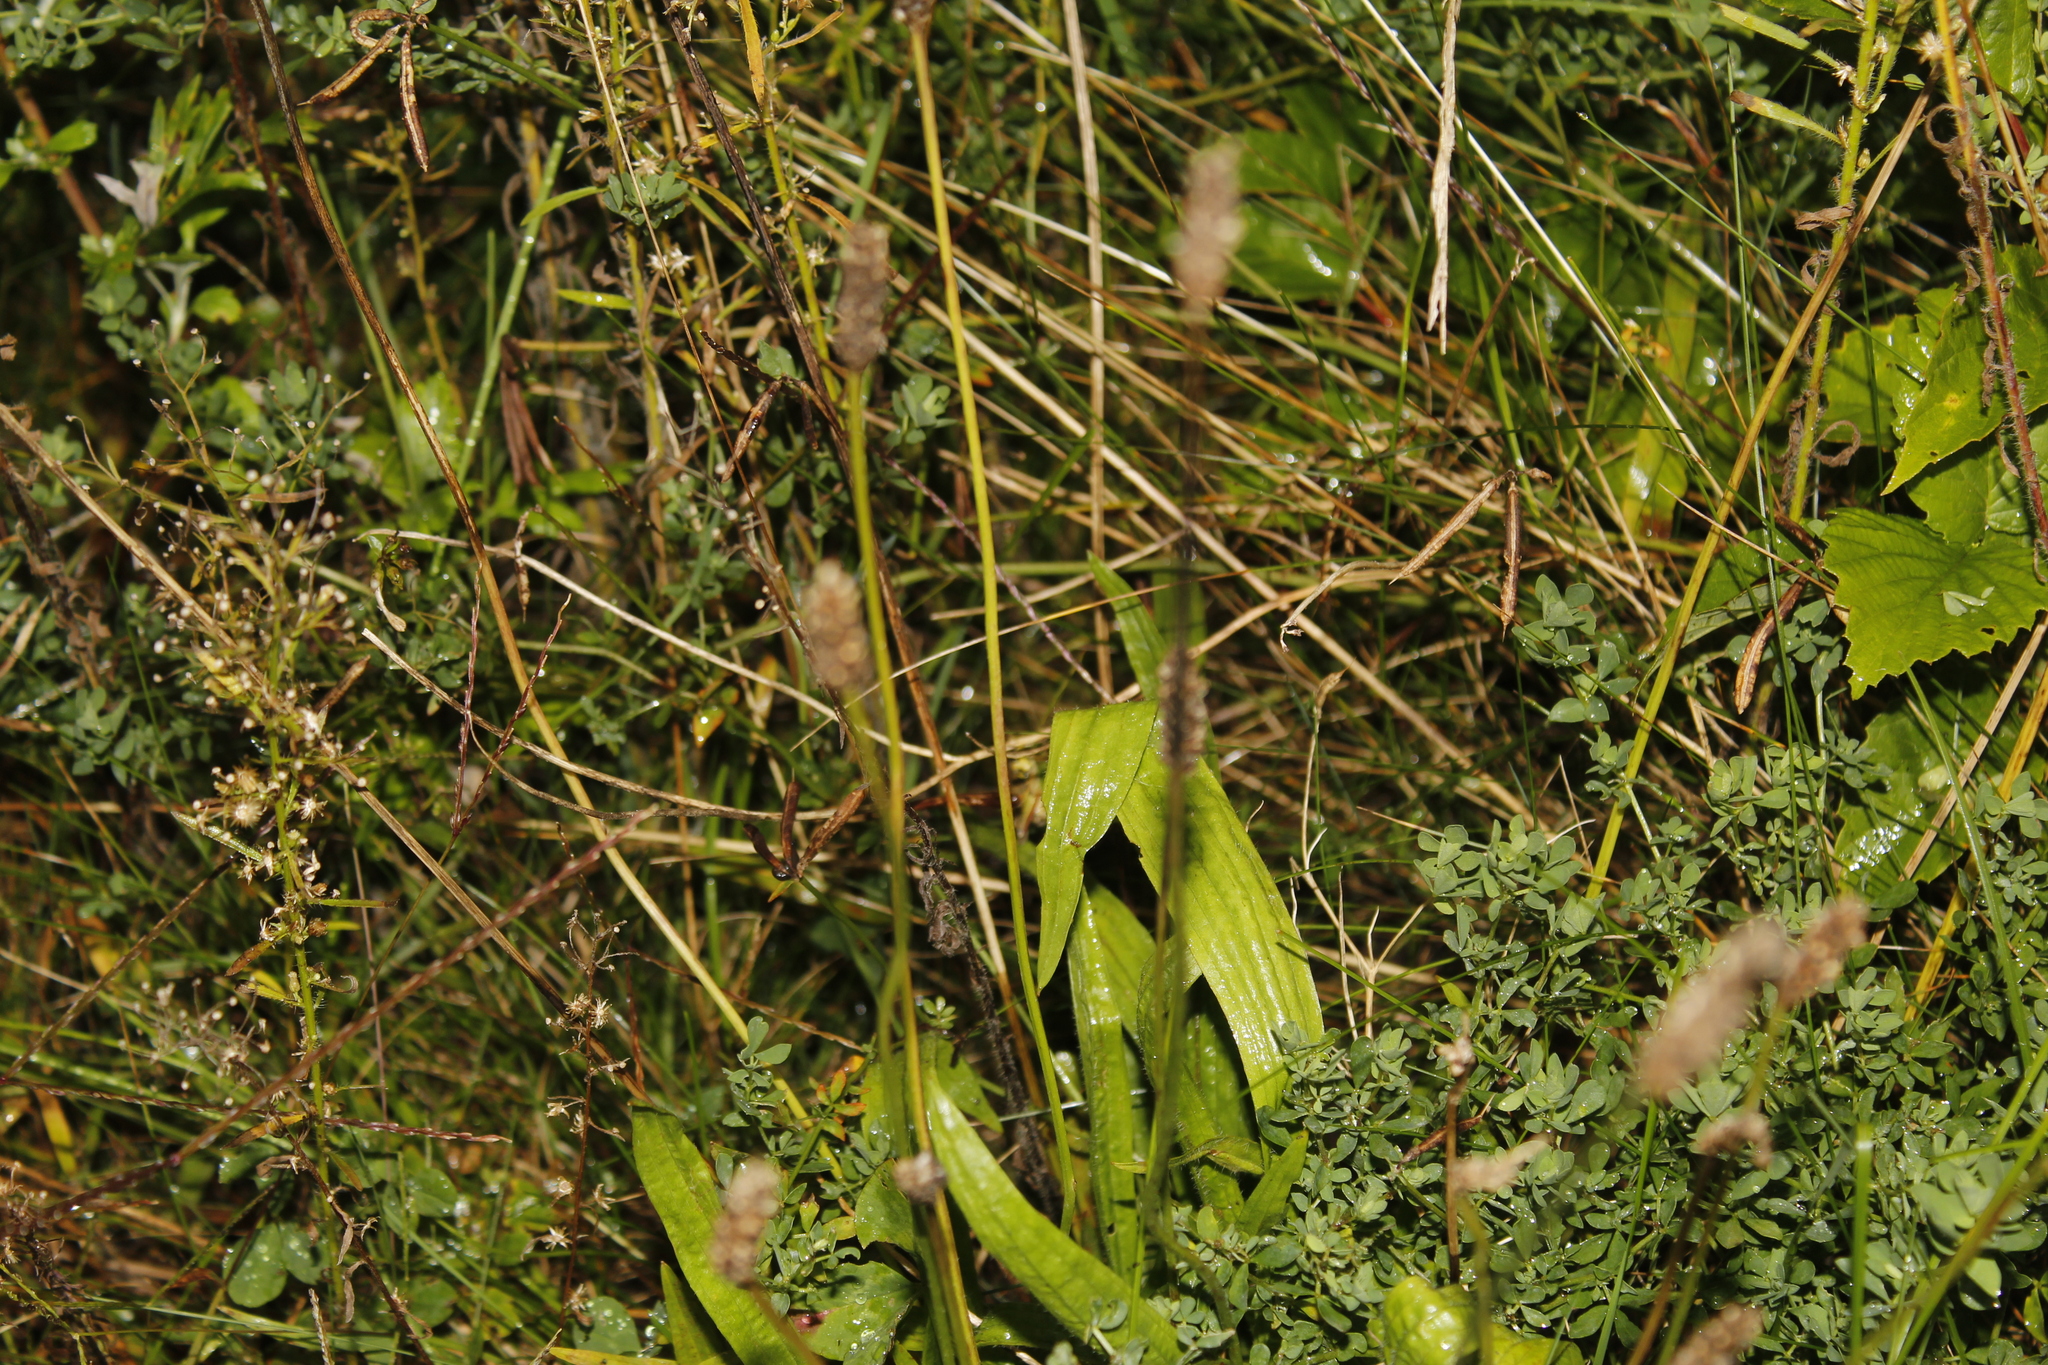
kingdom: Plantae
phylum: Tracheophyta
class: Magnoliopsida
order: Lamiales
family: Plantaginaceae
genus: Plantago
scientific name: Plantago lanceolata
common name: Ribwort plantain
